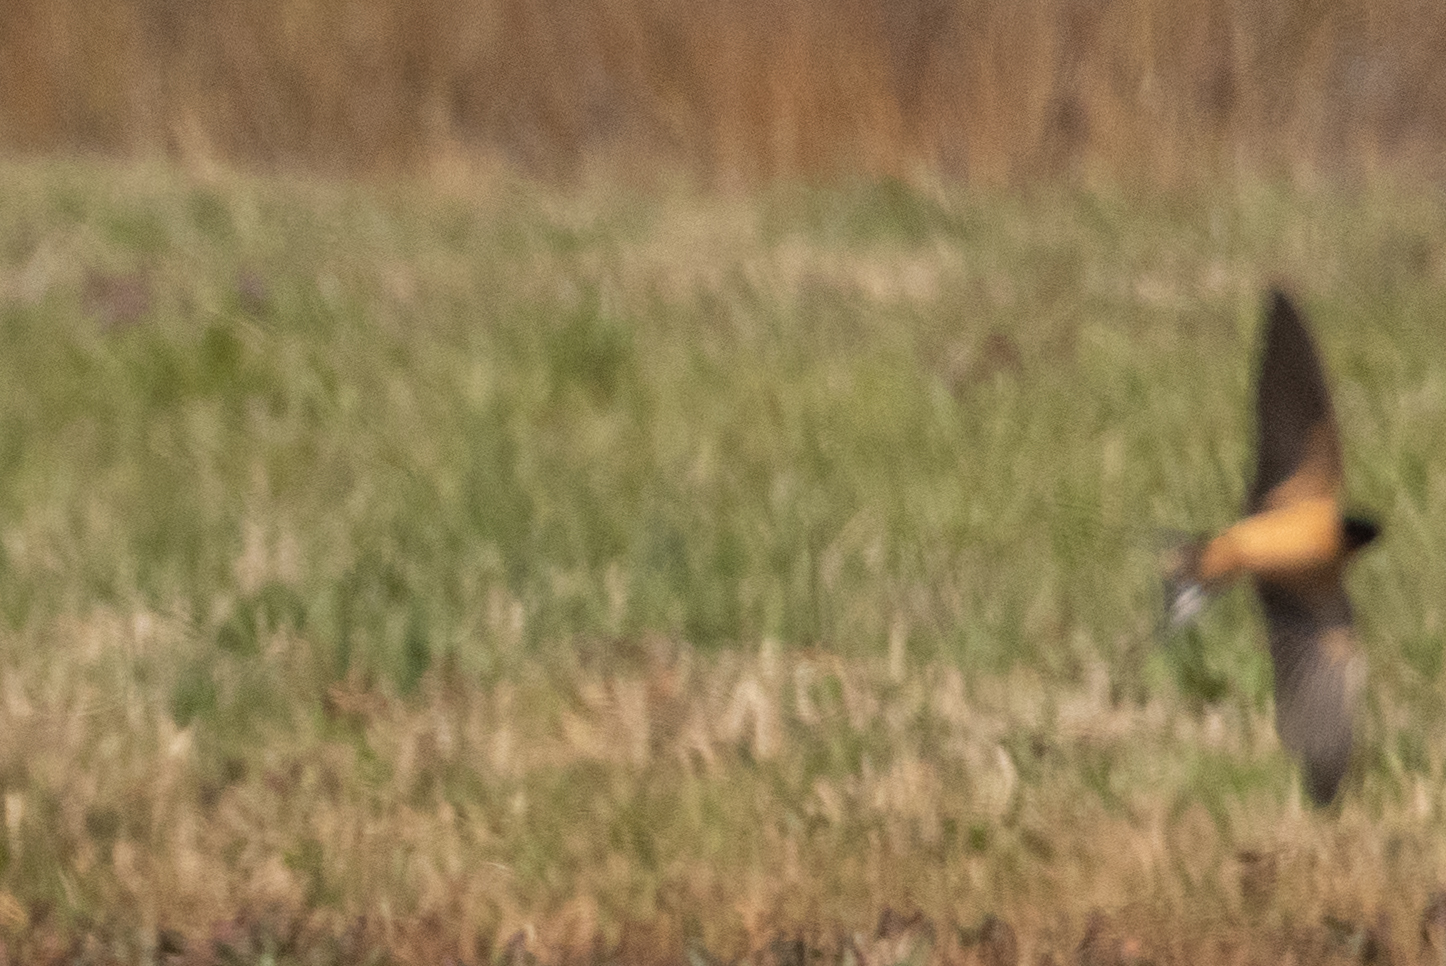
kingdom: Animalia
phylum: Chordata
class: Aves
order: Passeriformes
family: Hirundinidae
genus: Hirundo
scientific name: Hirundo rustica
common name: Barn swallow
